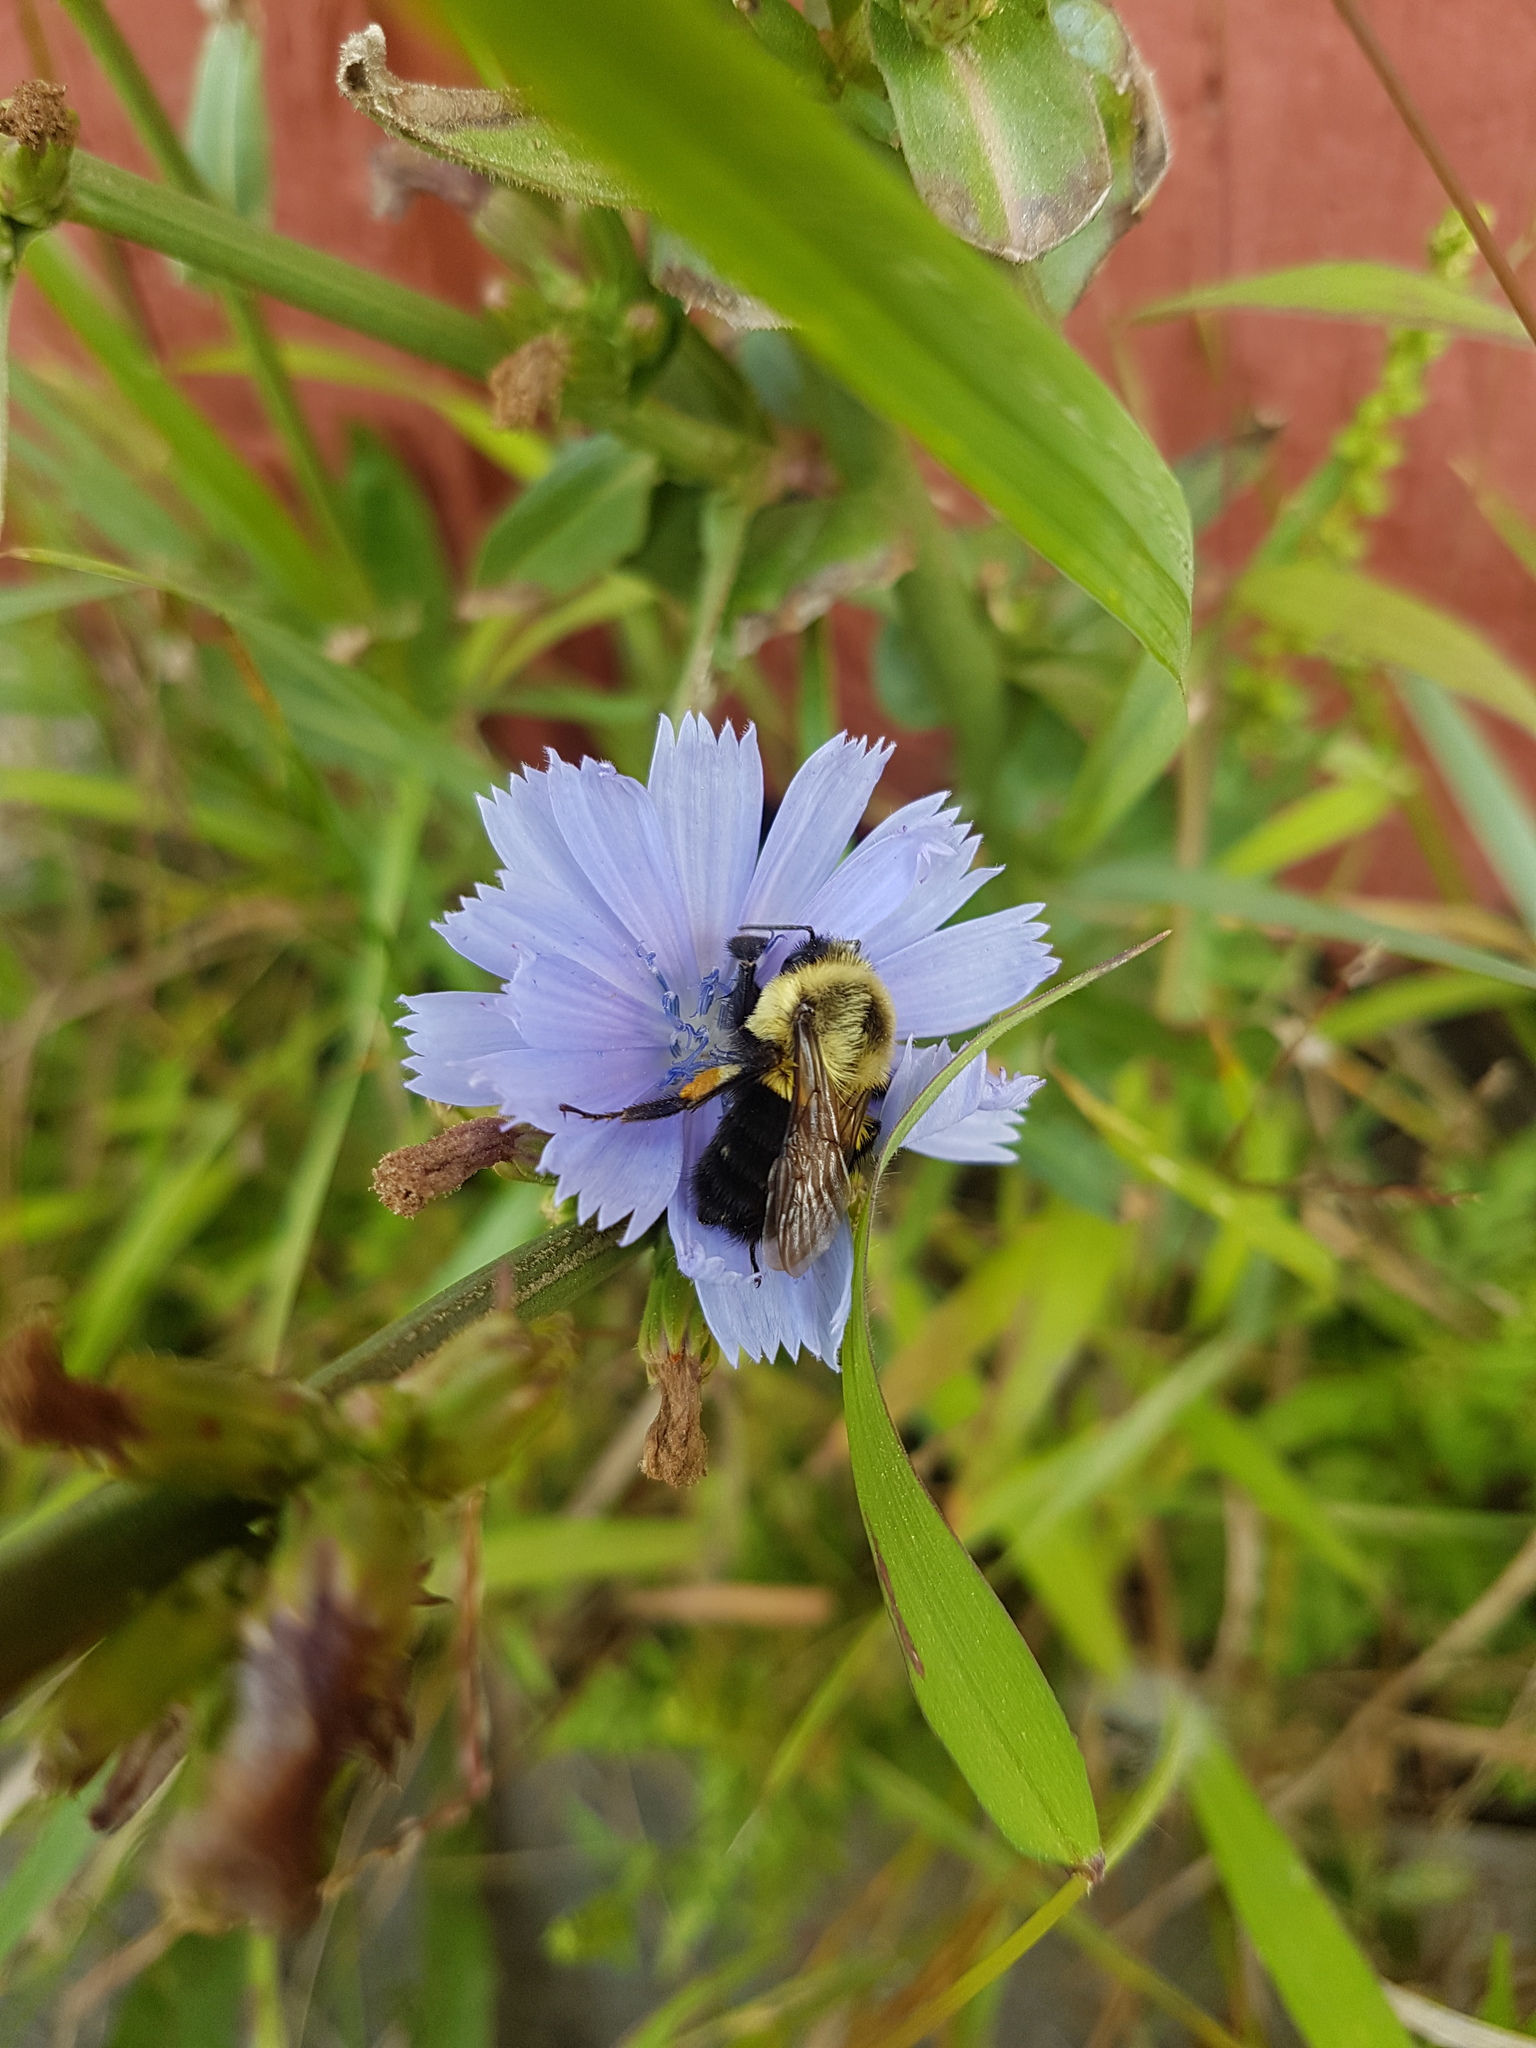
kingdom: Animalia
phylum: Arthropoda
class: Insecta
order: Hymenoptera
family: Apidae
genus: Bombus
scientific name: Bombus impatiens
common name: Common eastern bumble bee
